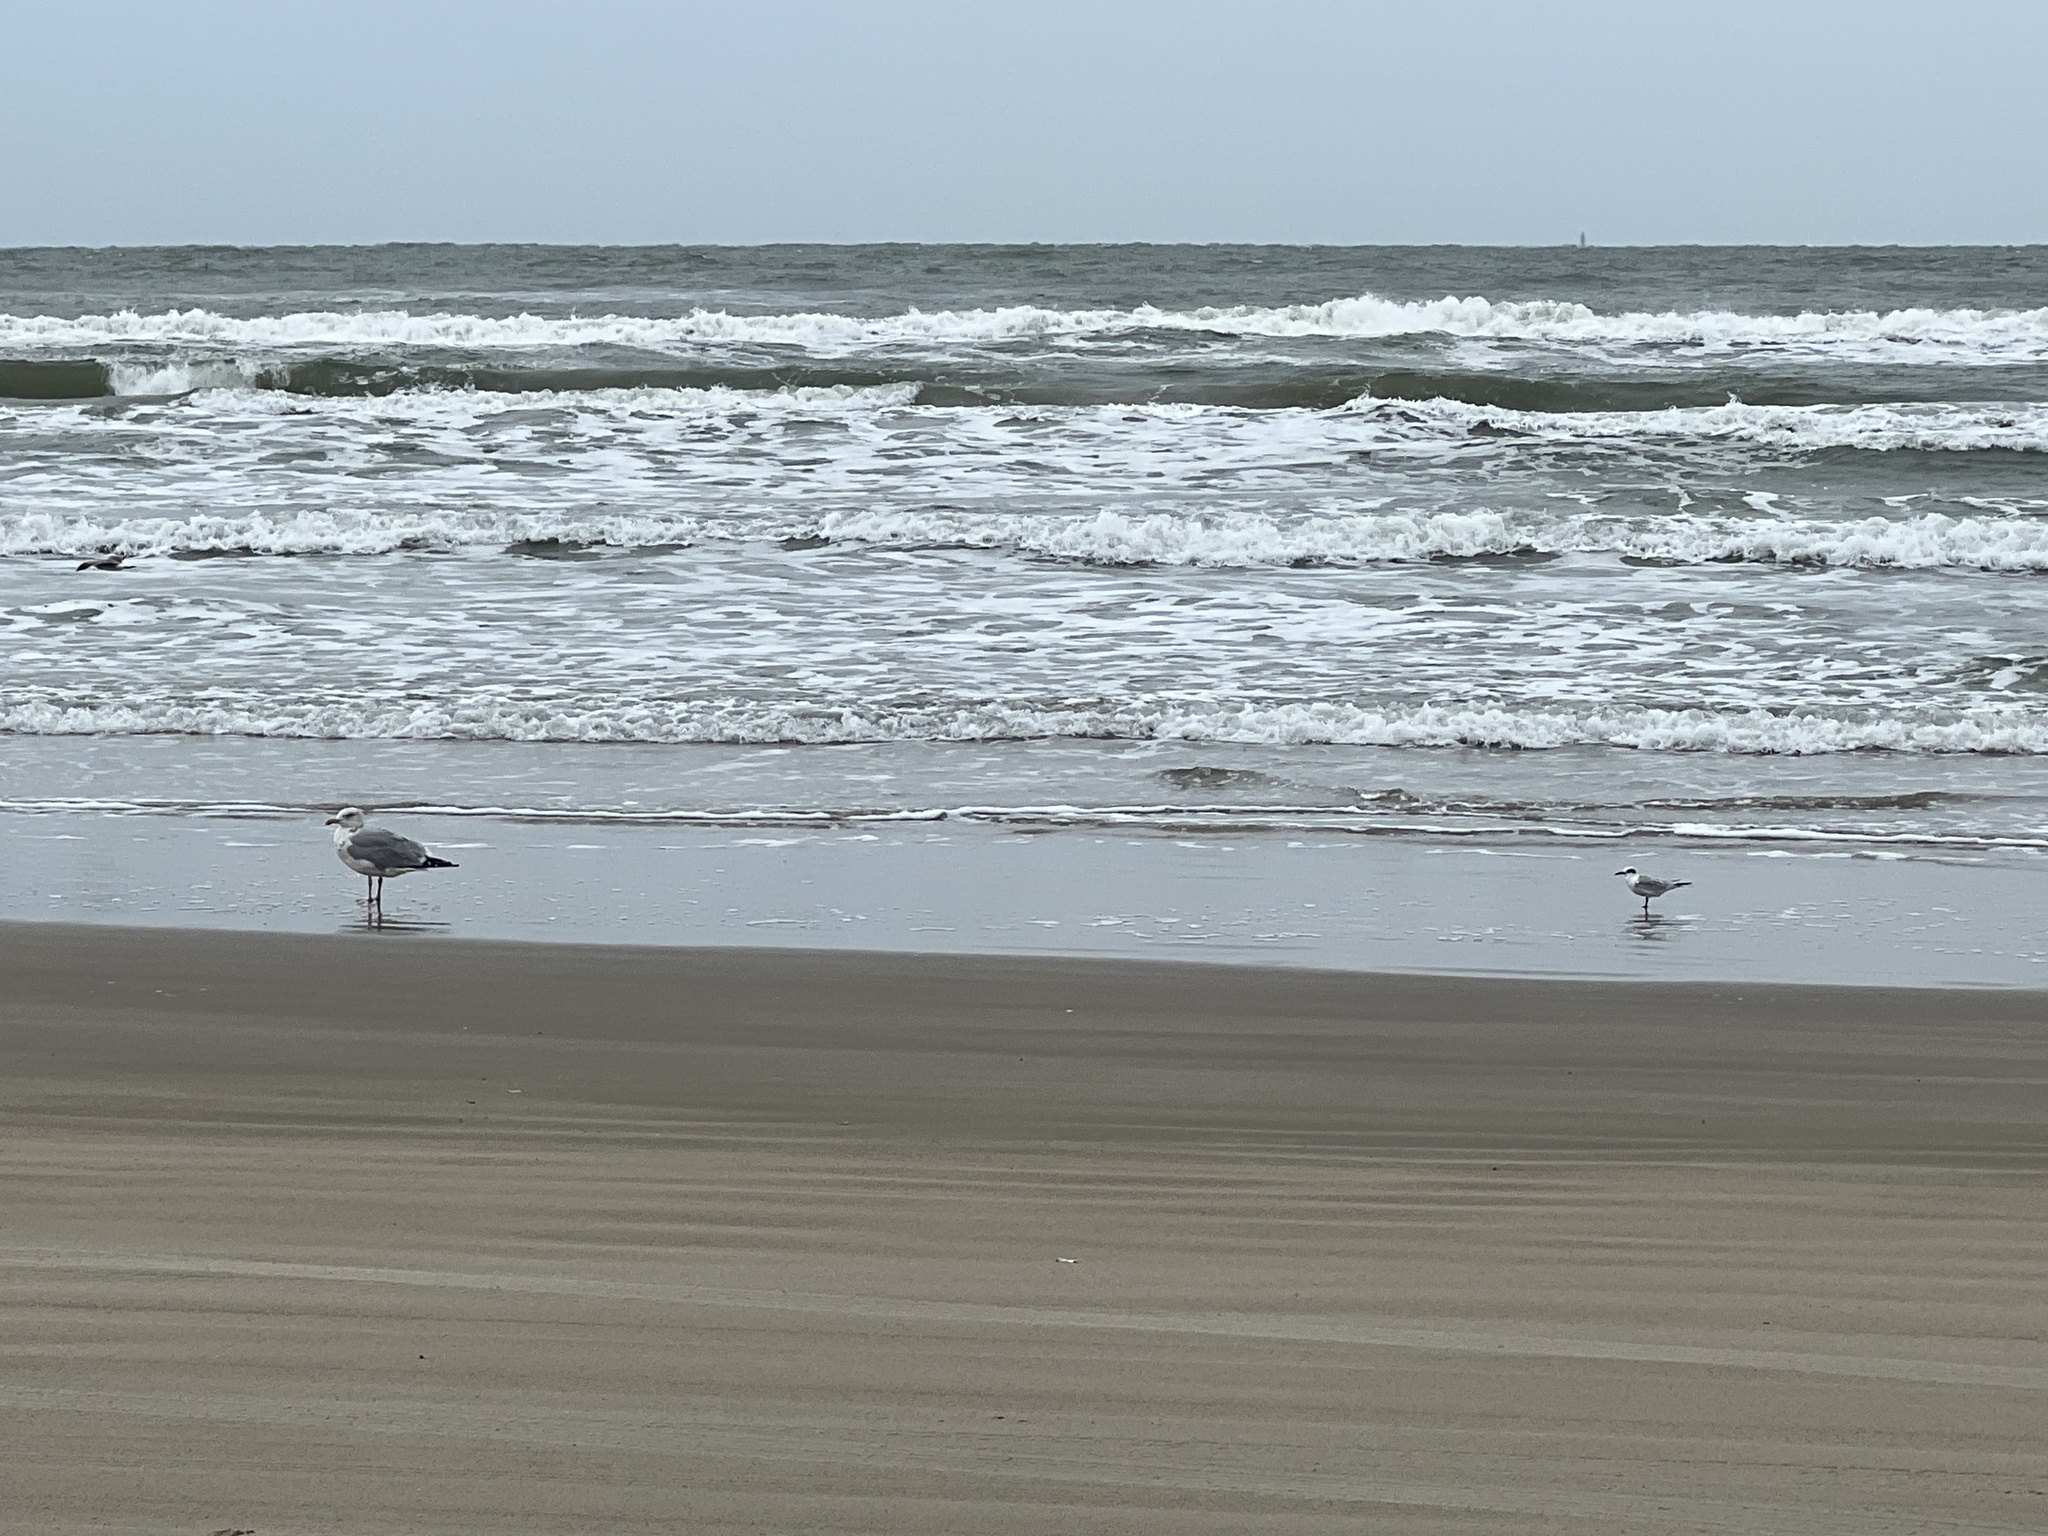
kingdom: Animalia
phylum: Chordata
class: Aves
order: Charadriiformes
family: Laridae
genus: Sterna
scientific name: Sterna forsteri
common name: Forster's tern
